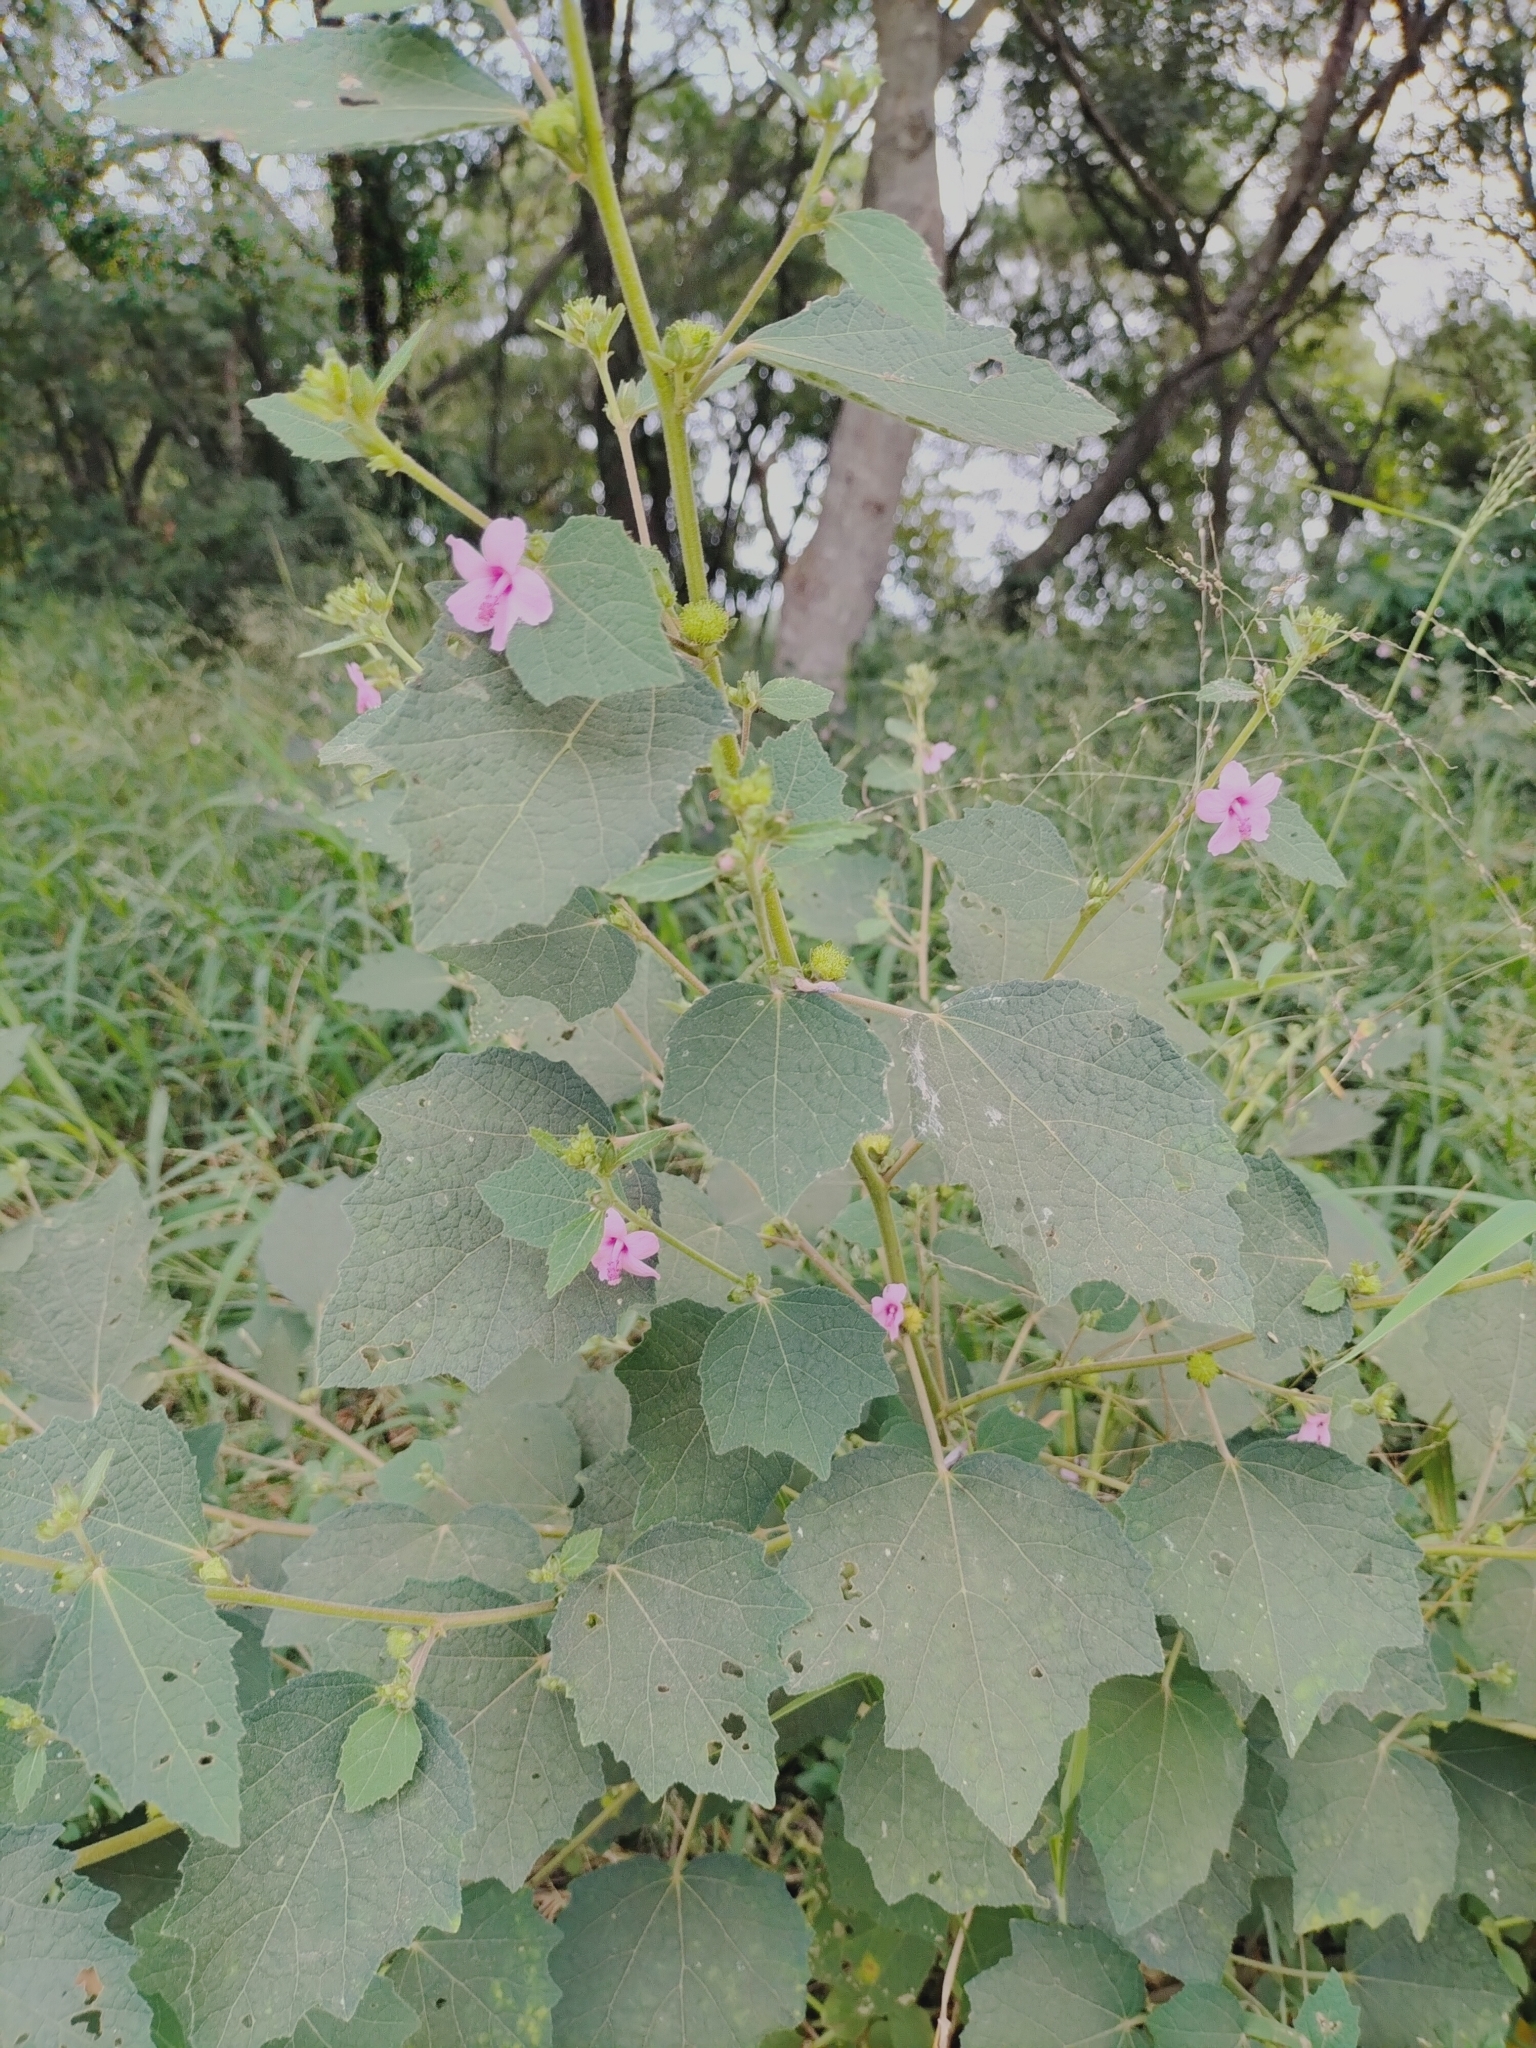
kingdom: Plantae
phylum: Tracheophyta
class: Magnoliopsida
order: Malvales
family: Malvaceae
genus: Urena
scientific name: Urena lobata
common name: Caesarweed
